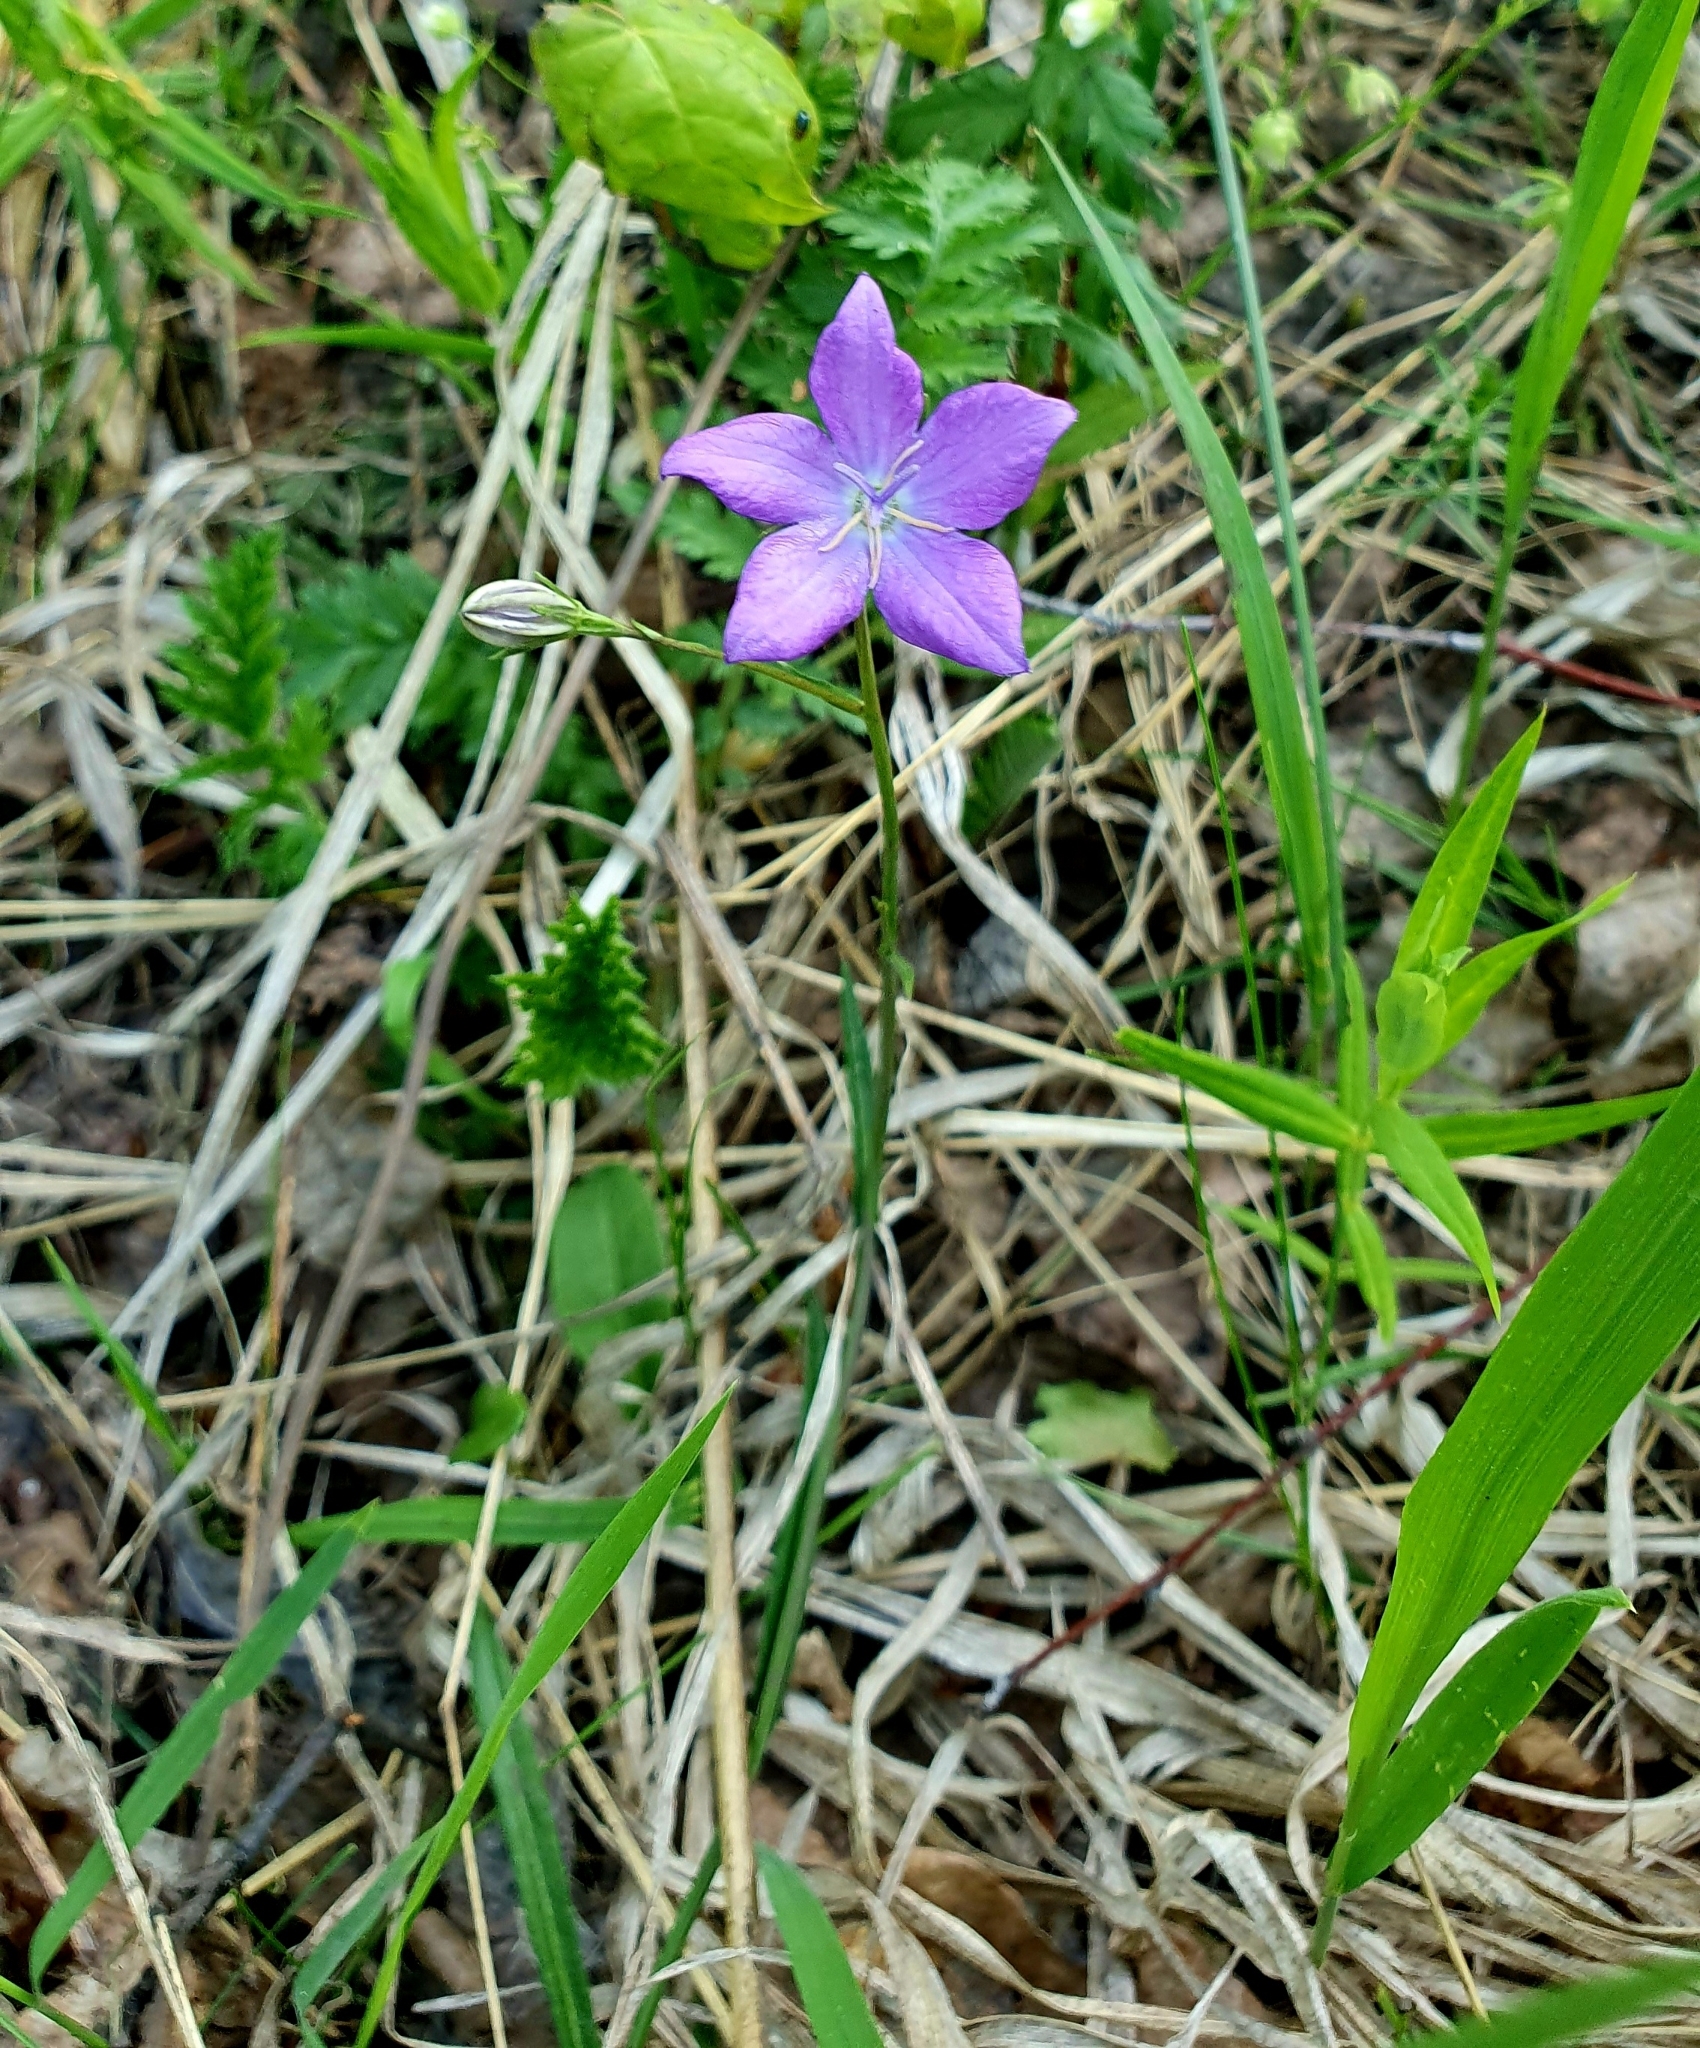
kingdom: Plantae
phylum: Tracheophyta
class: Magnoliopsida
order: Asterales
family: Campanulaceae
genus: Campanula
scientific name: Campanula stevenii
